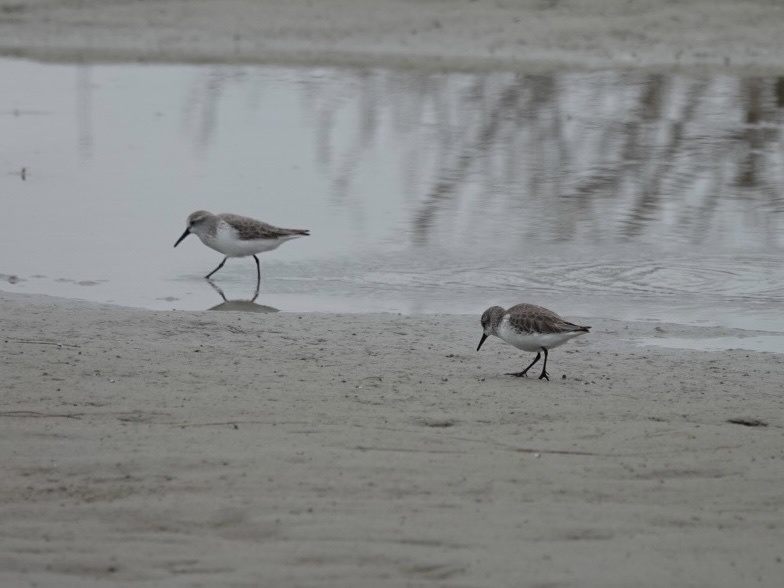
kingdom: Animalia
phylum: Chordata
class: Aves
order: Charadriiformes
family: Scolopacidae
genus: Calidris
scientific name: Calidris mauri
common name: Western sandpiper
